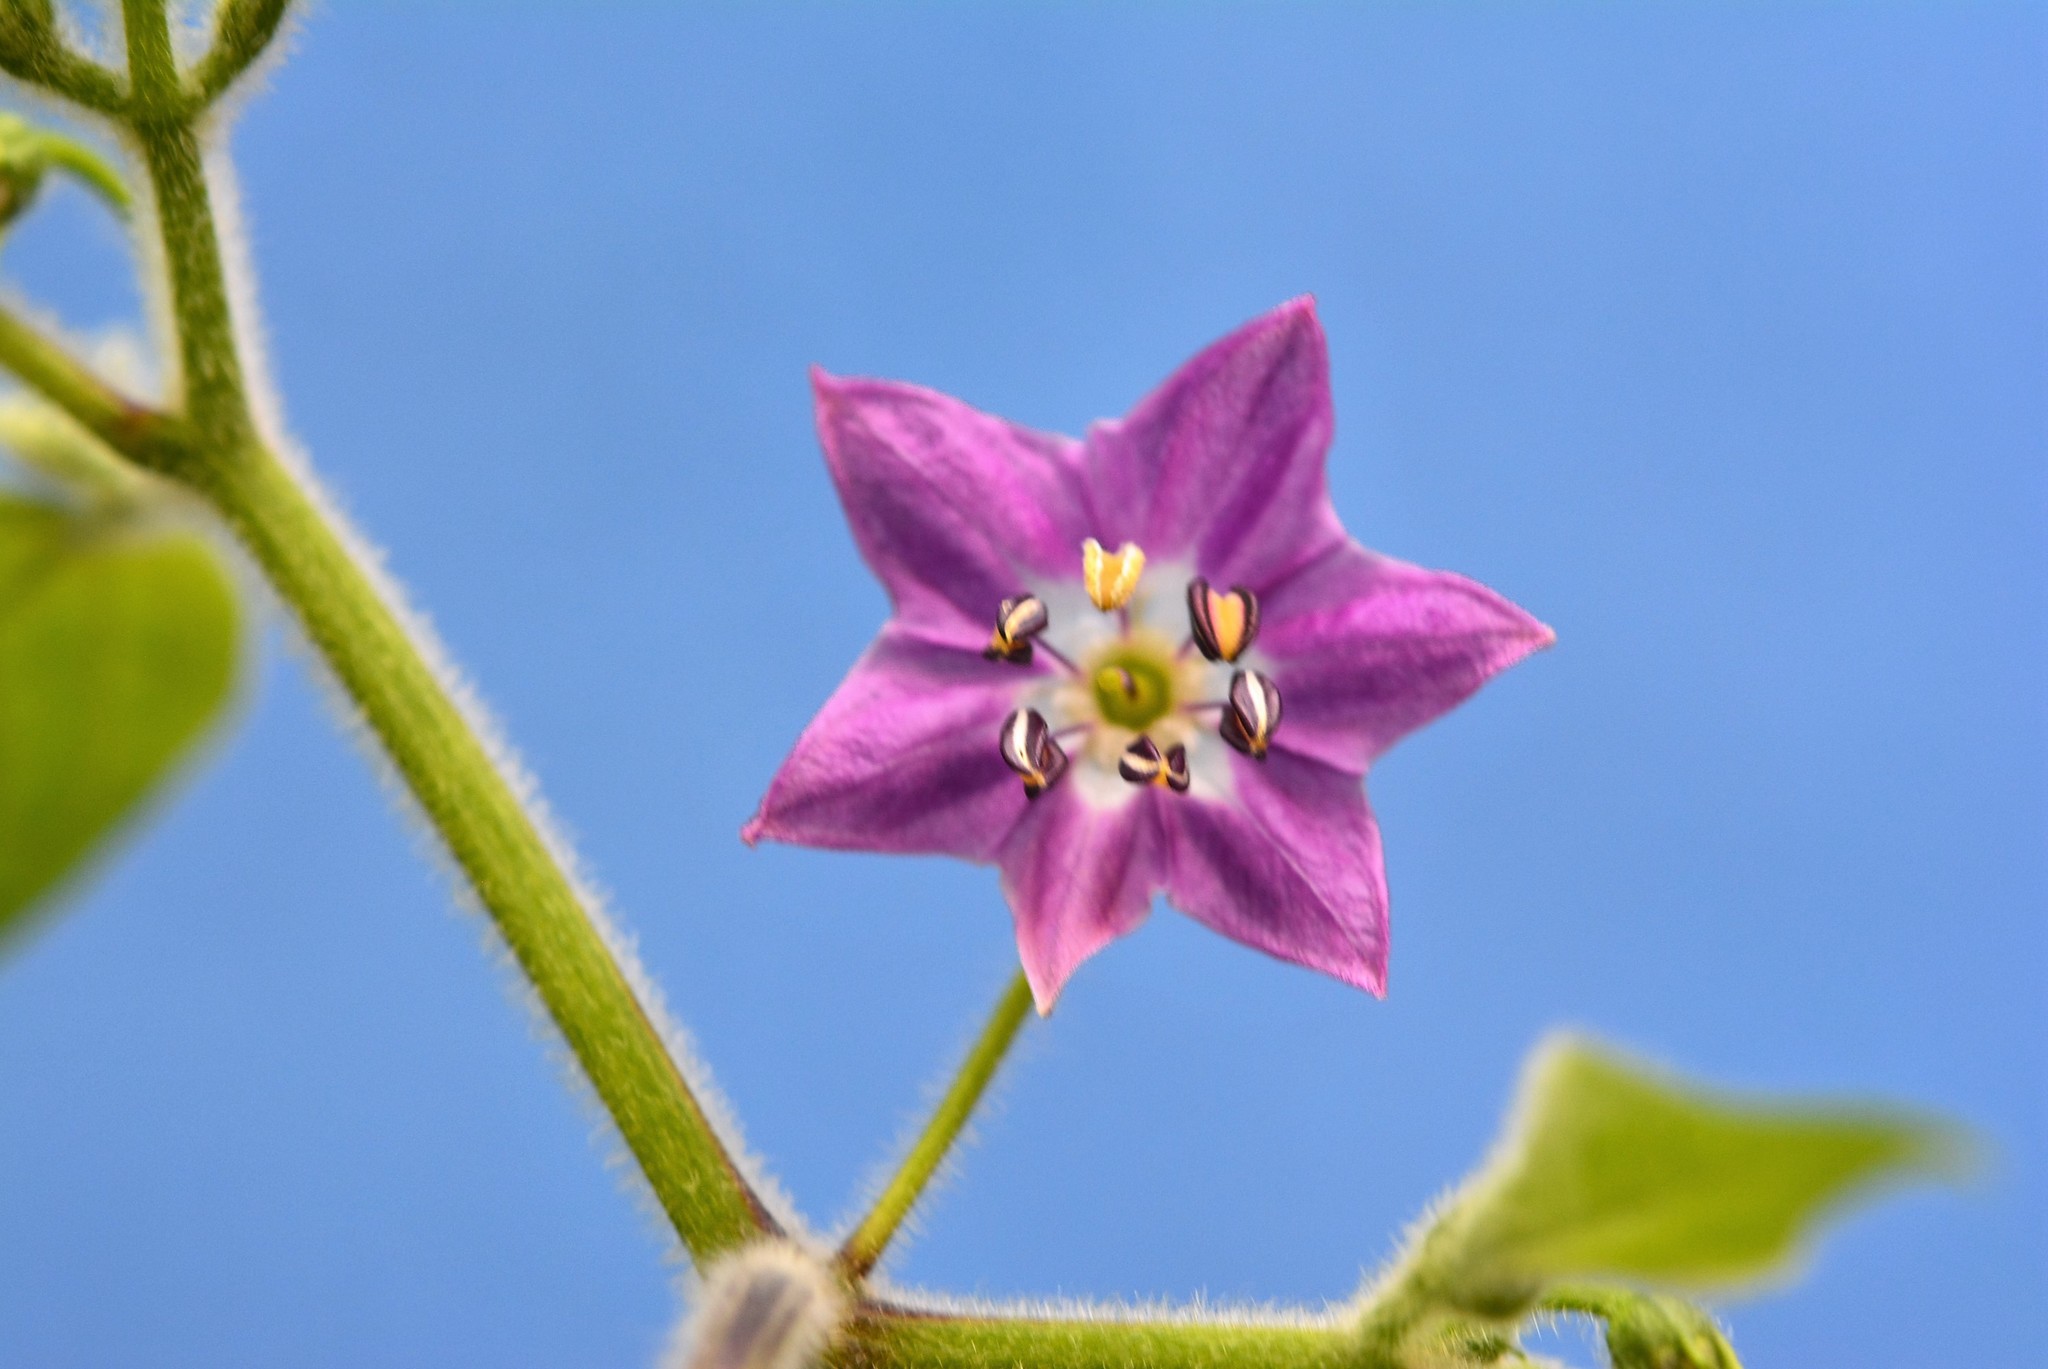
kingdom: Plantae
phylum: Tracheophyta
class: Magnoliopsida
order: Solanales
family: Solanaceae
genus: Capsicum
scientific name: Capsicum pubescens
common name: Apple chile
